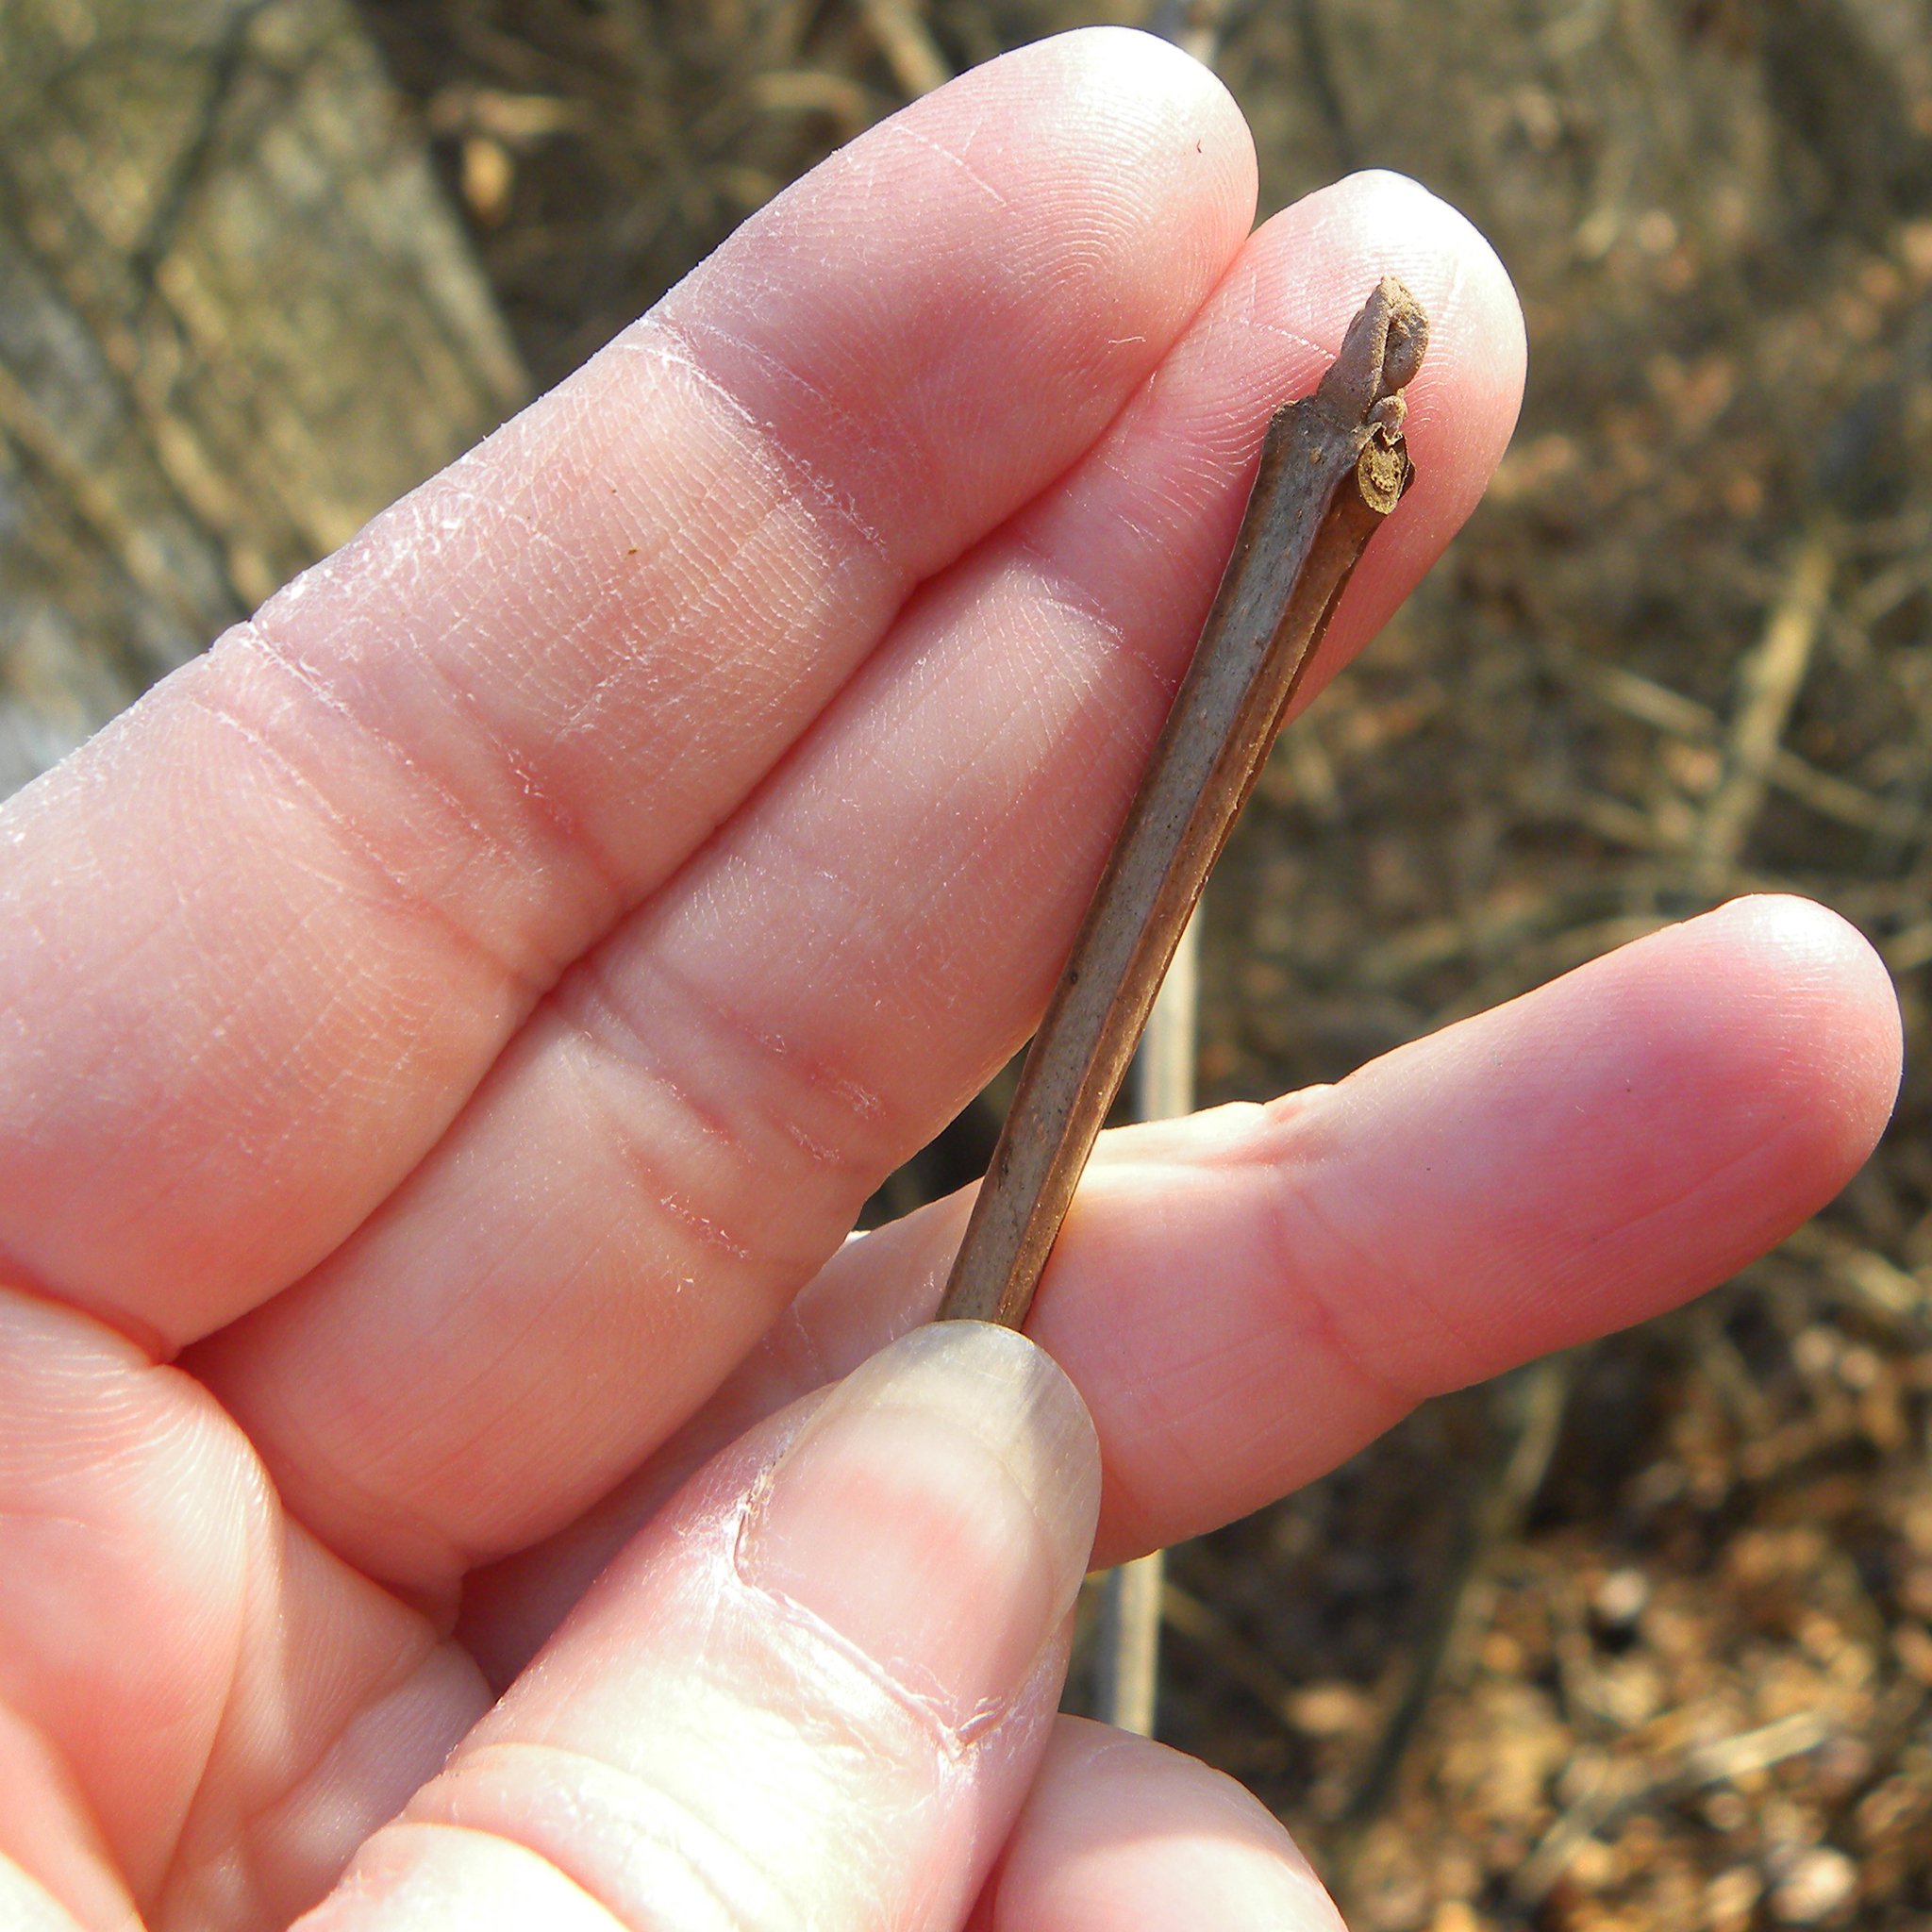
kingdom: Plantae
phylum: Tracheophyta
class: Magnoliopsida
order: Lamiales
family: Oleaceae
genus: Fraxinus
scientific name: Fraxinus quadrangulata
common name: Blue ash
